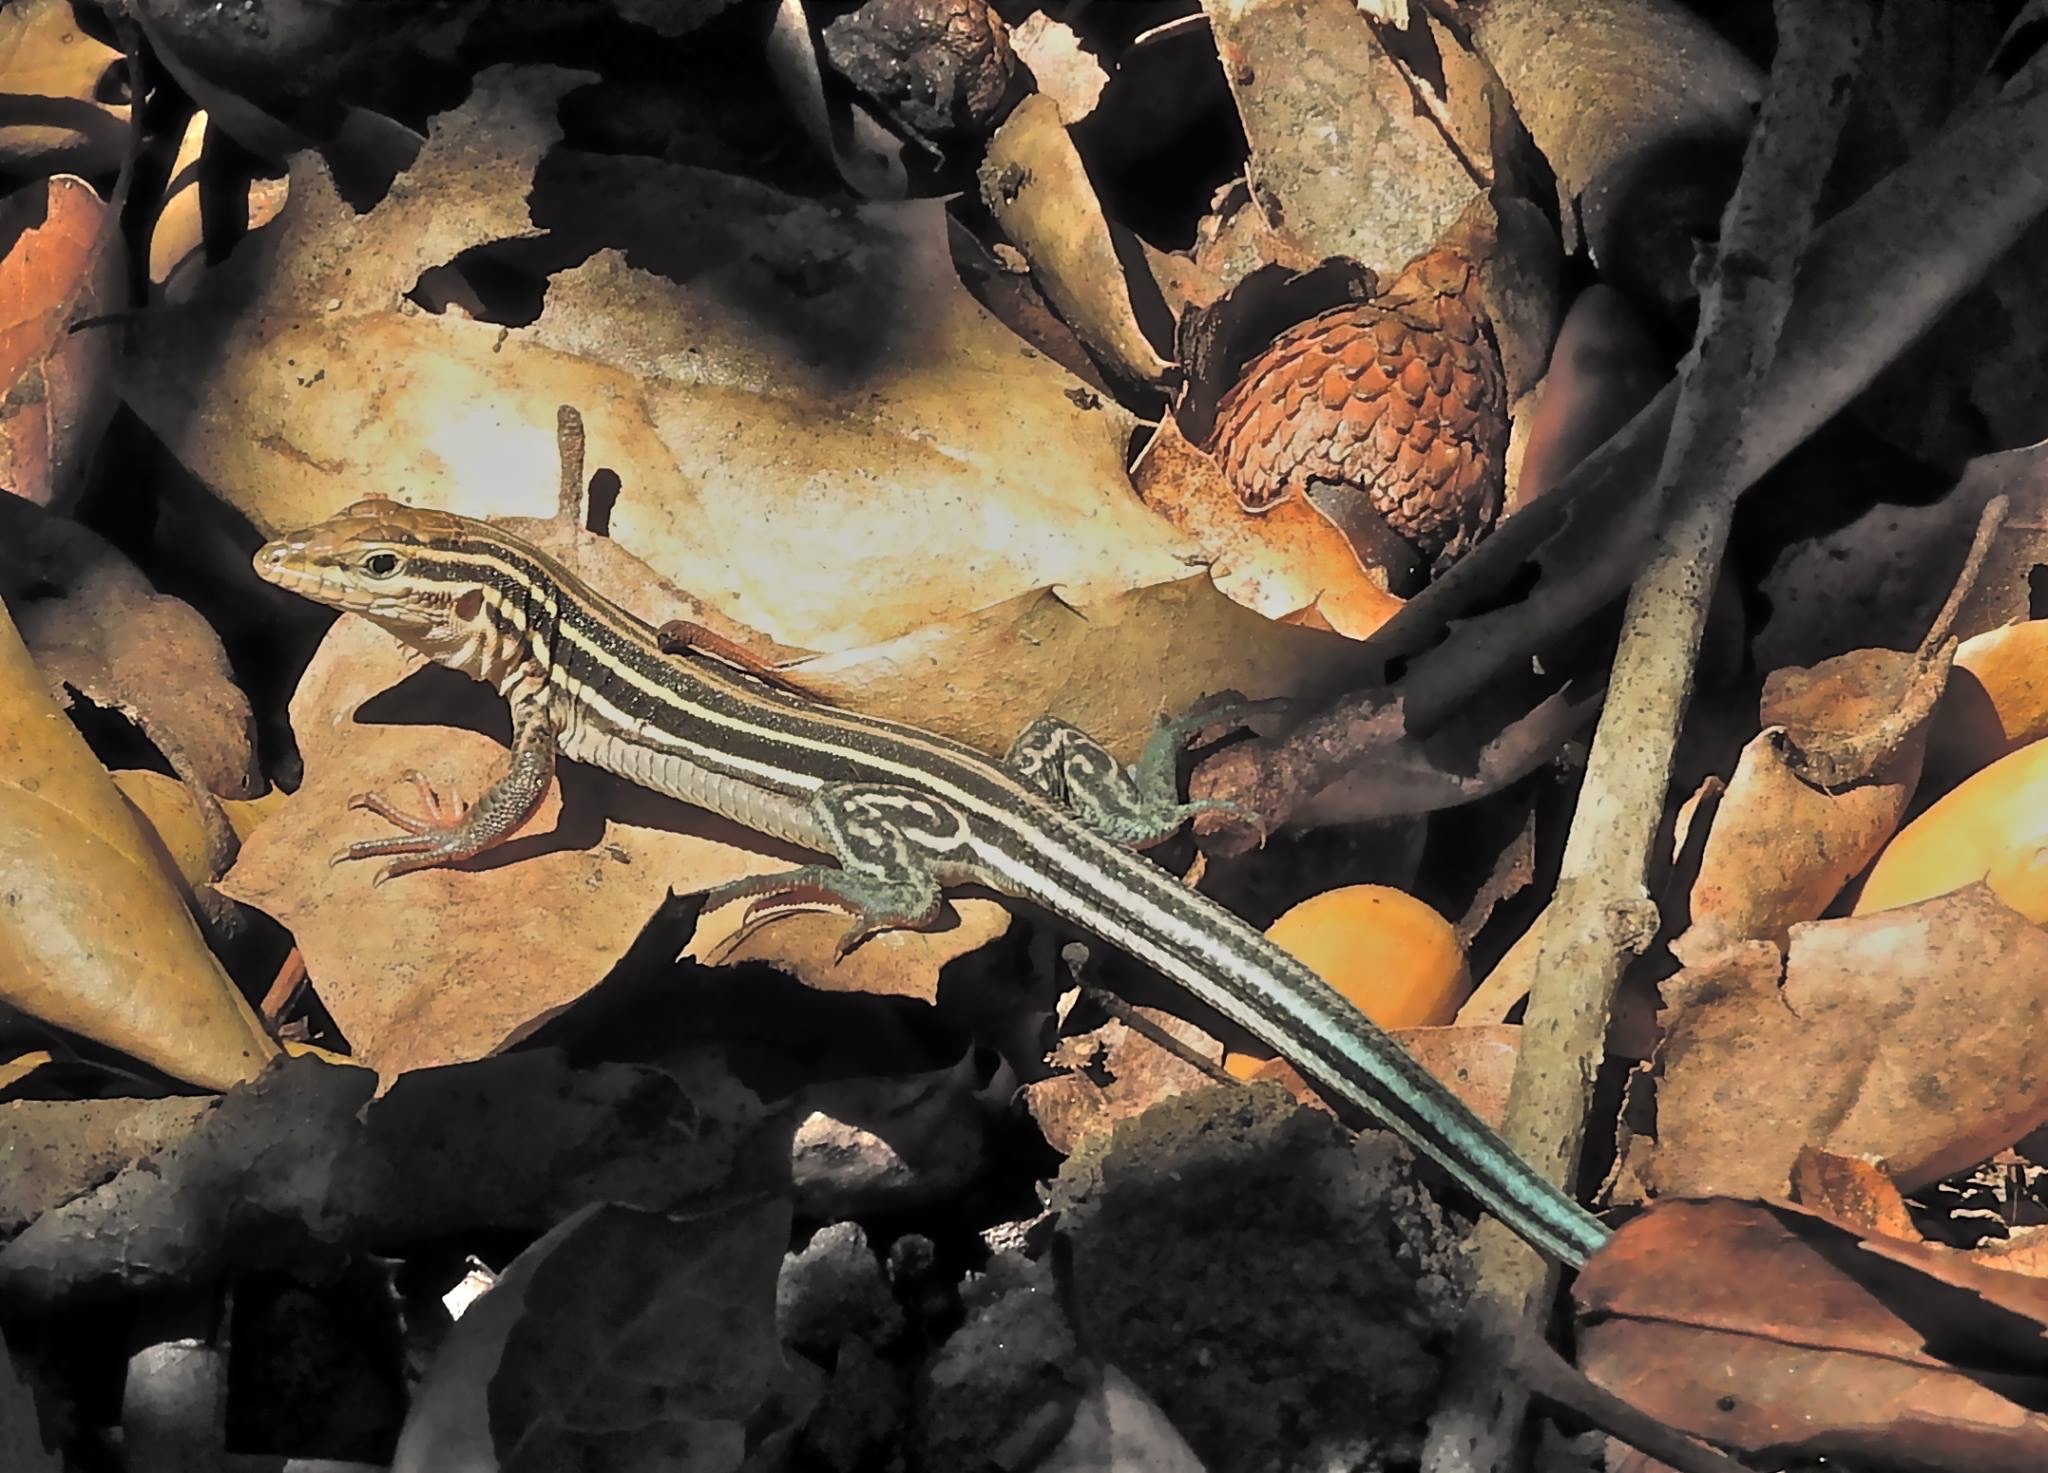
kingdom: Animalia
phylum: Chordata
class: Squamata
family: Teiidae
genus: Aspidoscelis
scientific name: Aspidoscelis hyperythrus
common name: Orange-throated race-runner
